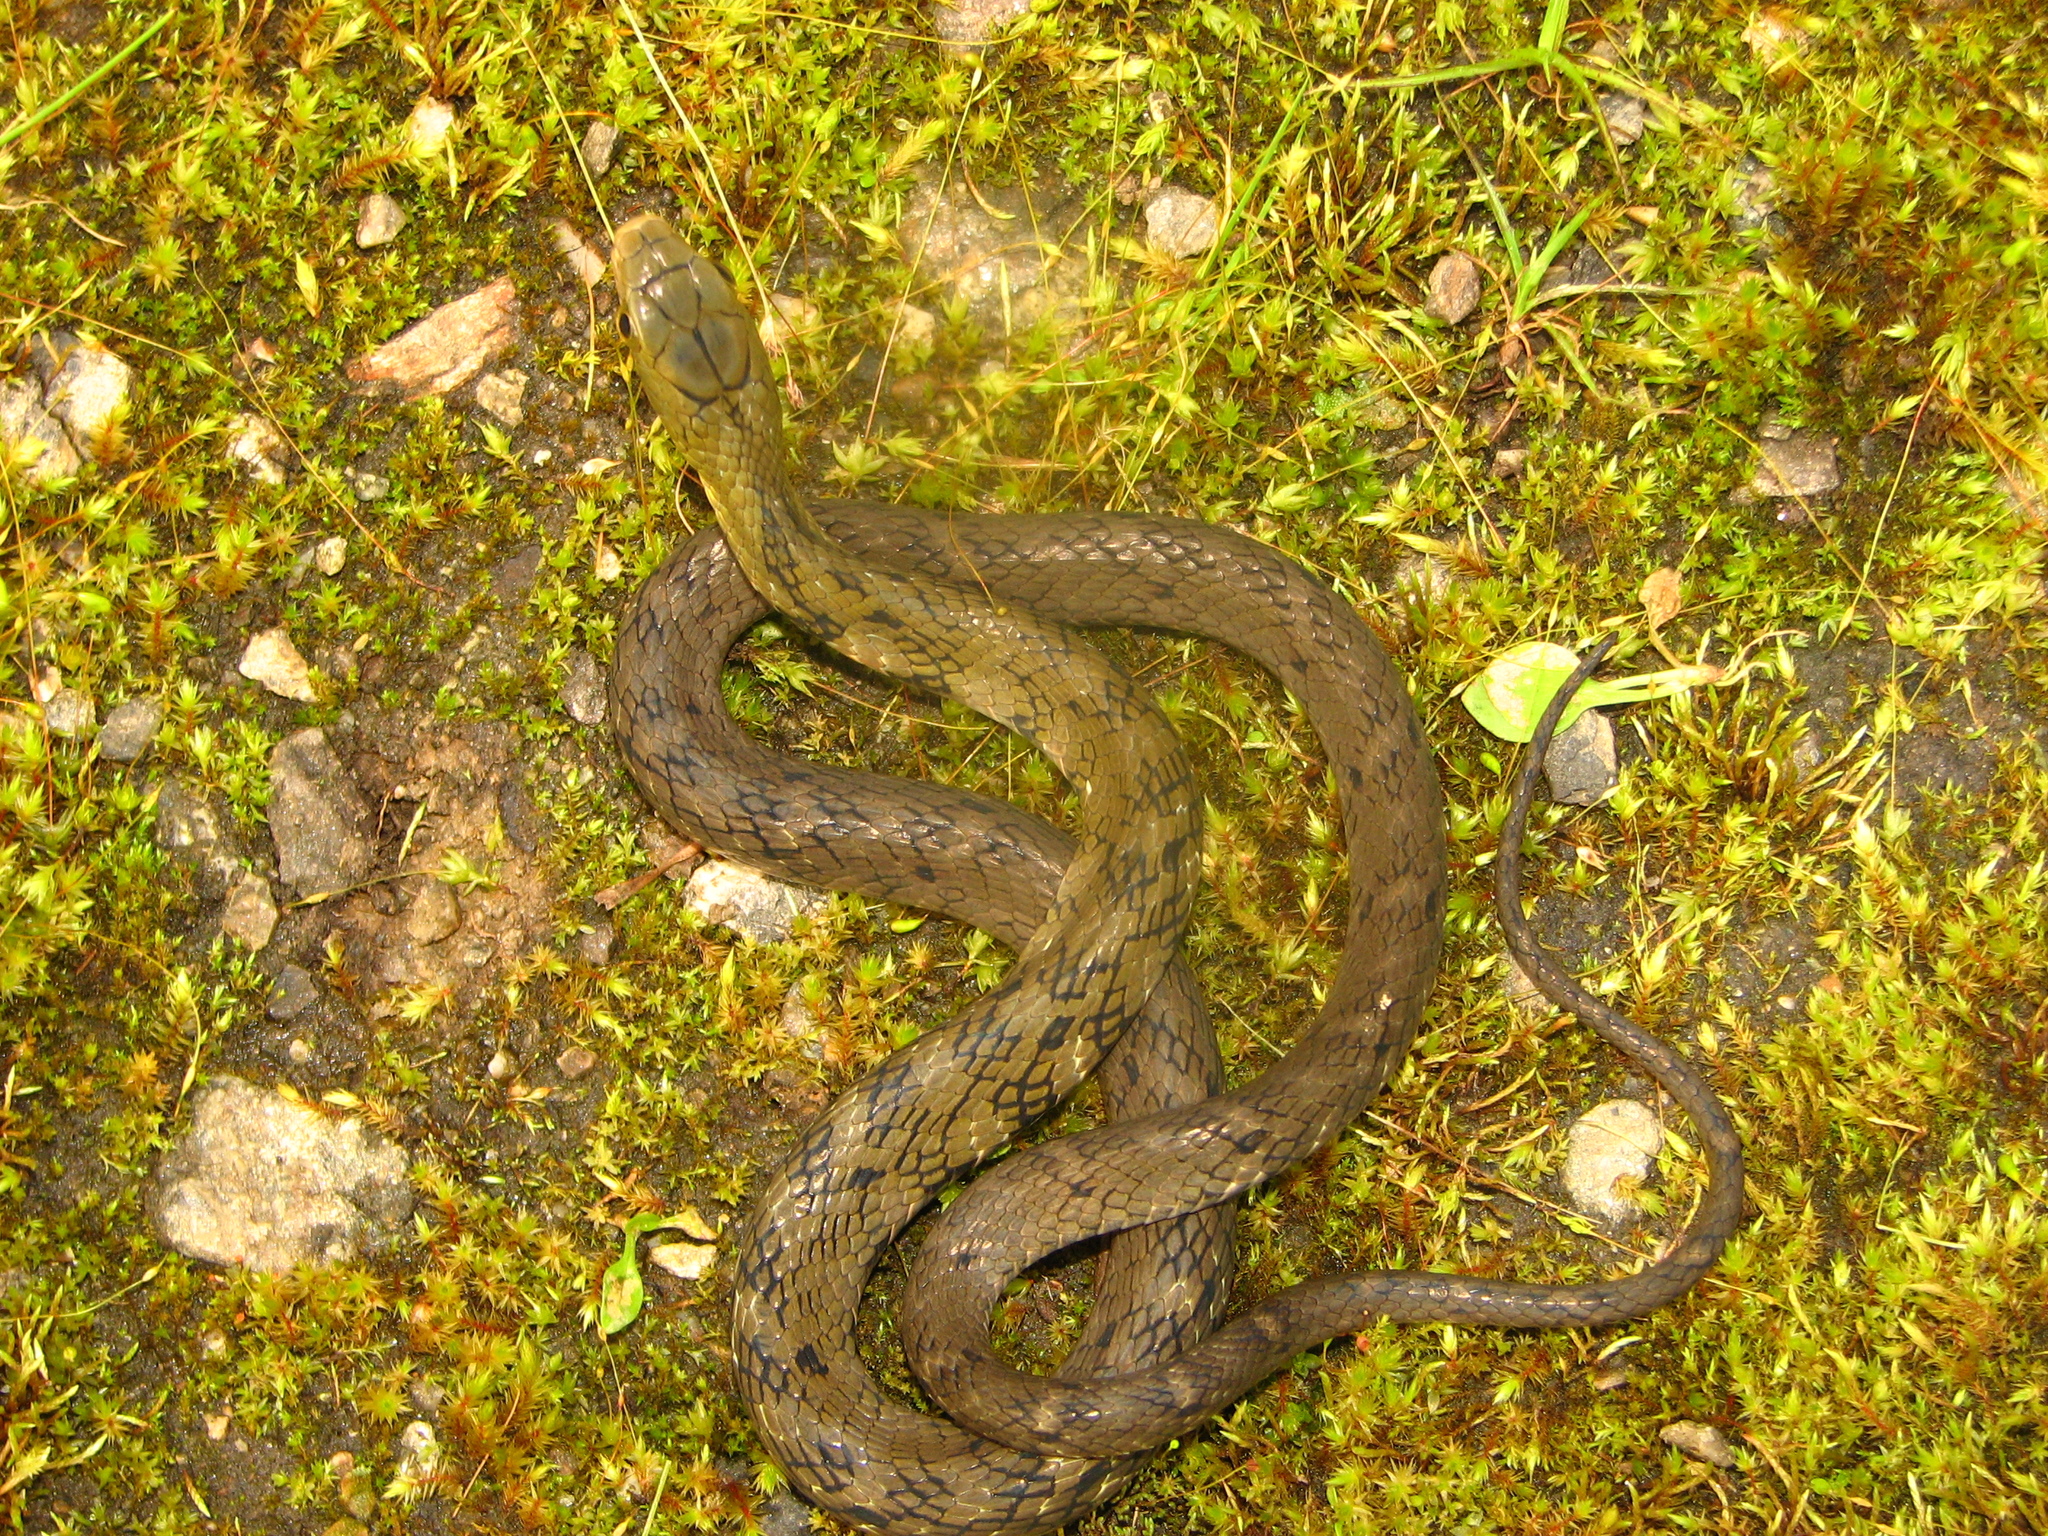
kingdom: Animalia
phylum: Chordata
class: Squamata
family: Colubridae
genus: Pseudoxenodon
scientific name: Pseudoxenodon macrops
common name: Big-eyed mountain keelback
